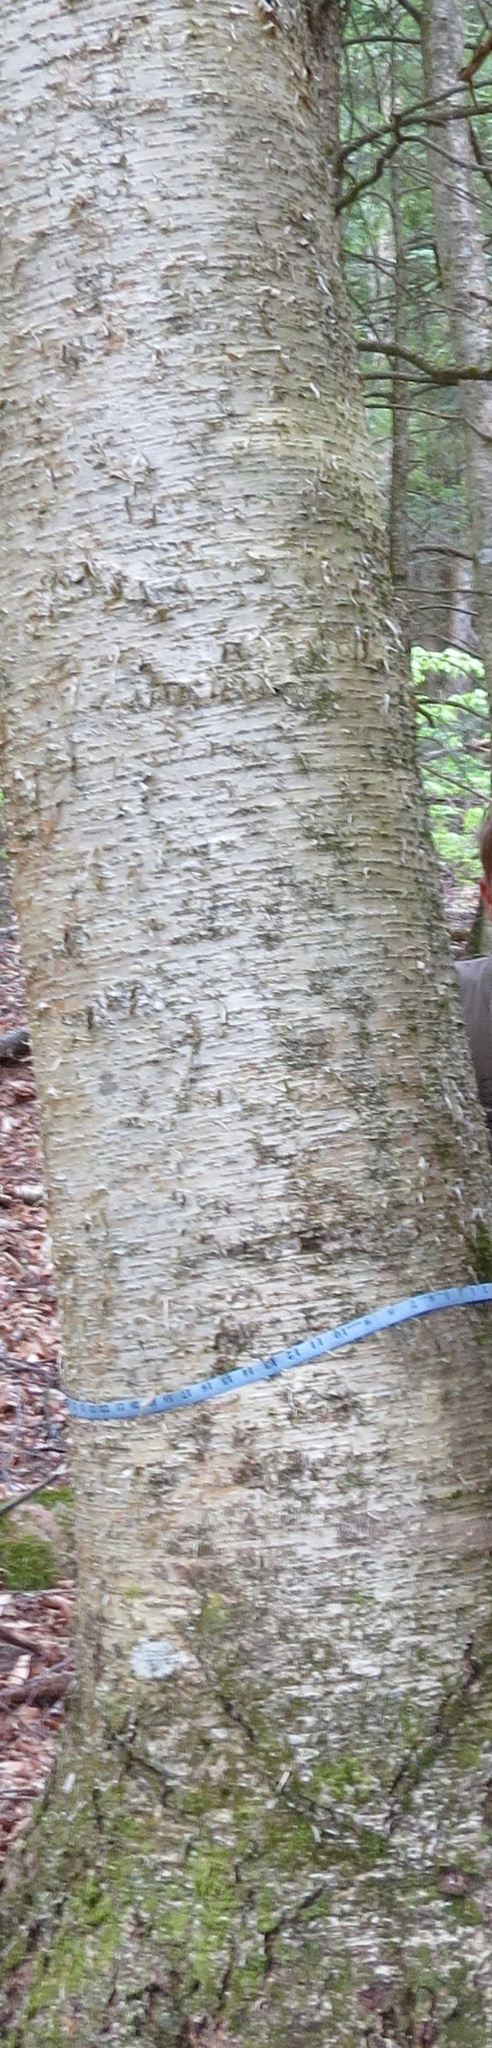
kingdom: Plantae
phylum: Tracheophyta
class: Magnoliopsida
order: Fagales
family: Betulaceae
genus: Betula
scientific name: Betula alleghaniensis
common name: Yellow birch
